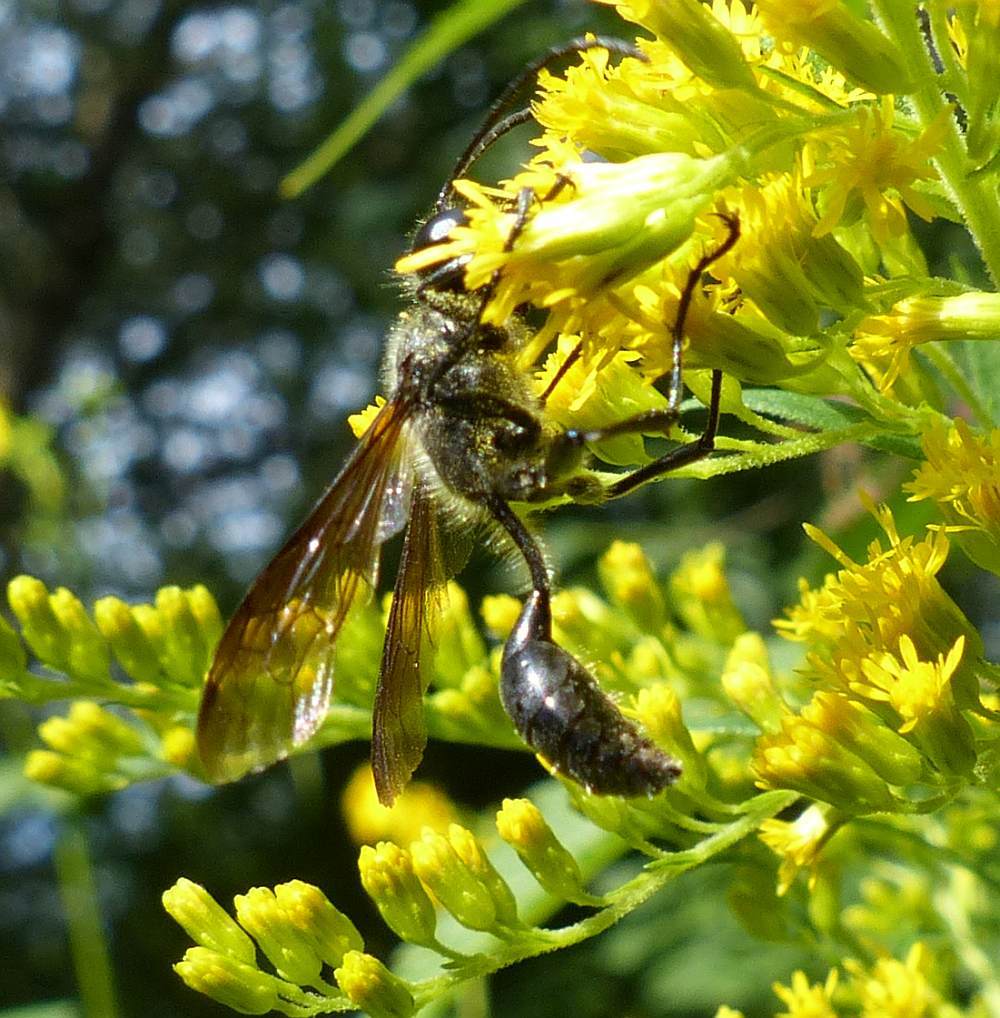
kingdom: Animalia
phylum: Arthropoda
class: Insecta
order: Hymenoptera
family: Sphecidae
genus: Isodontia
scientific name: Isodontia mexicana
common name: Mud dauber
